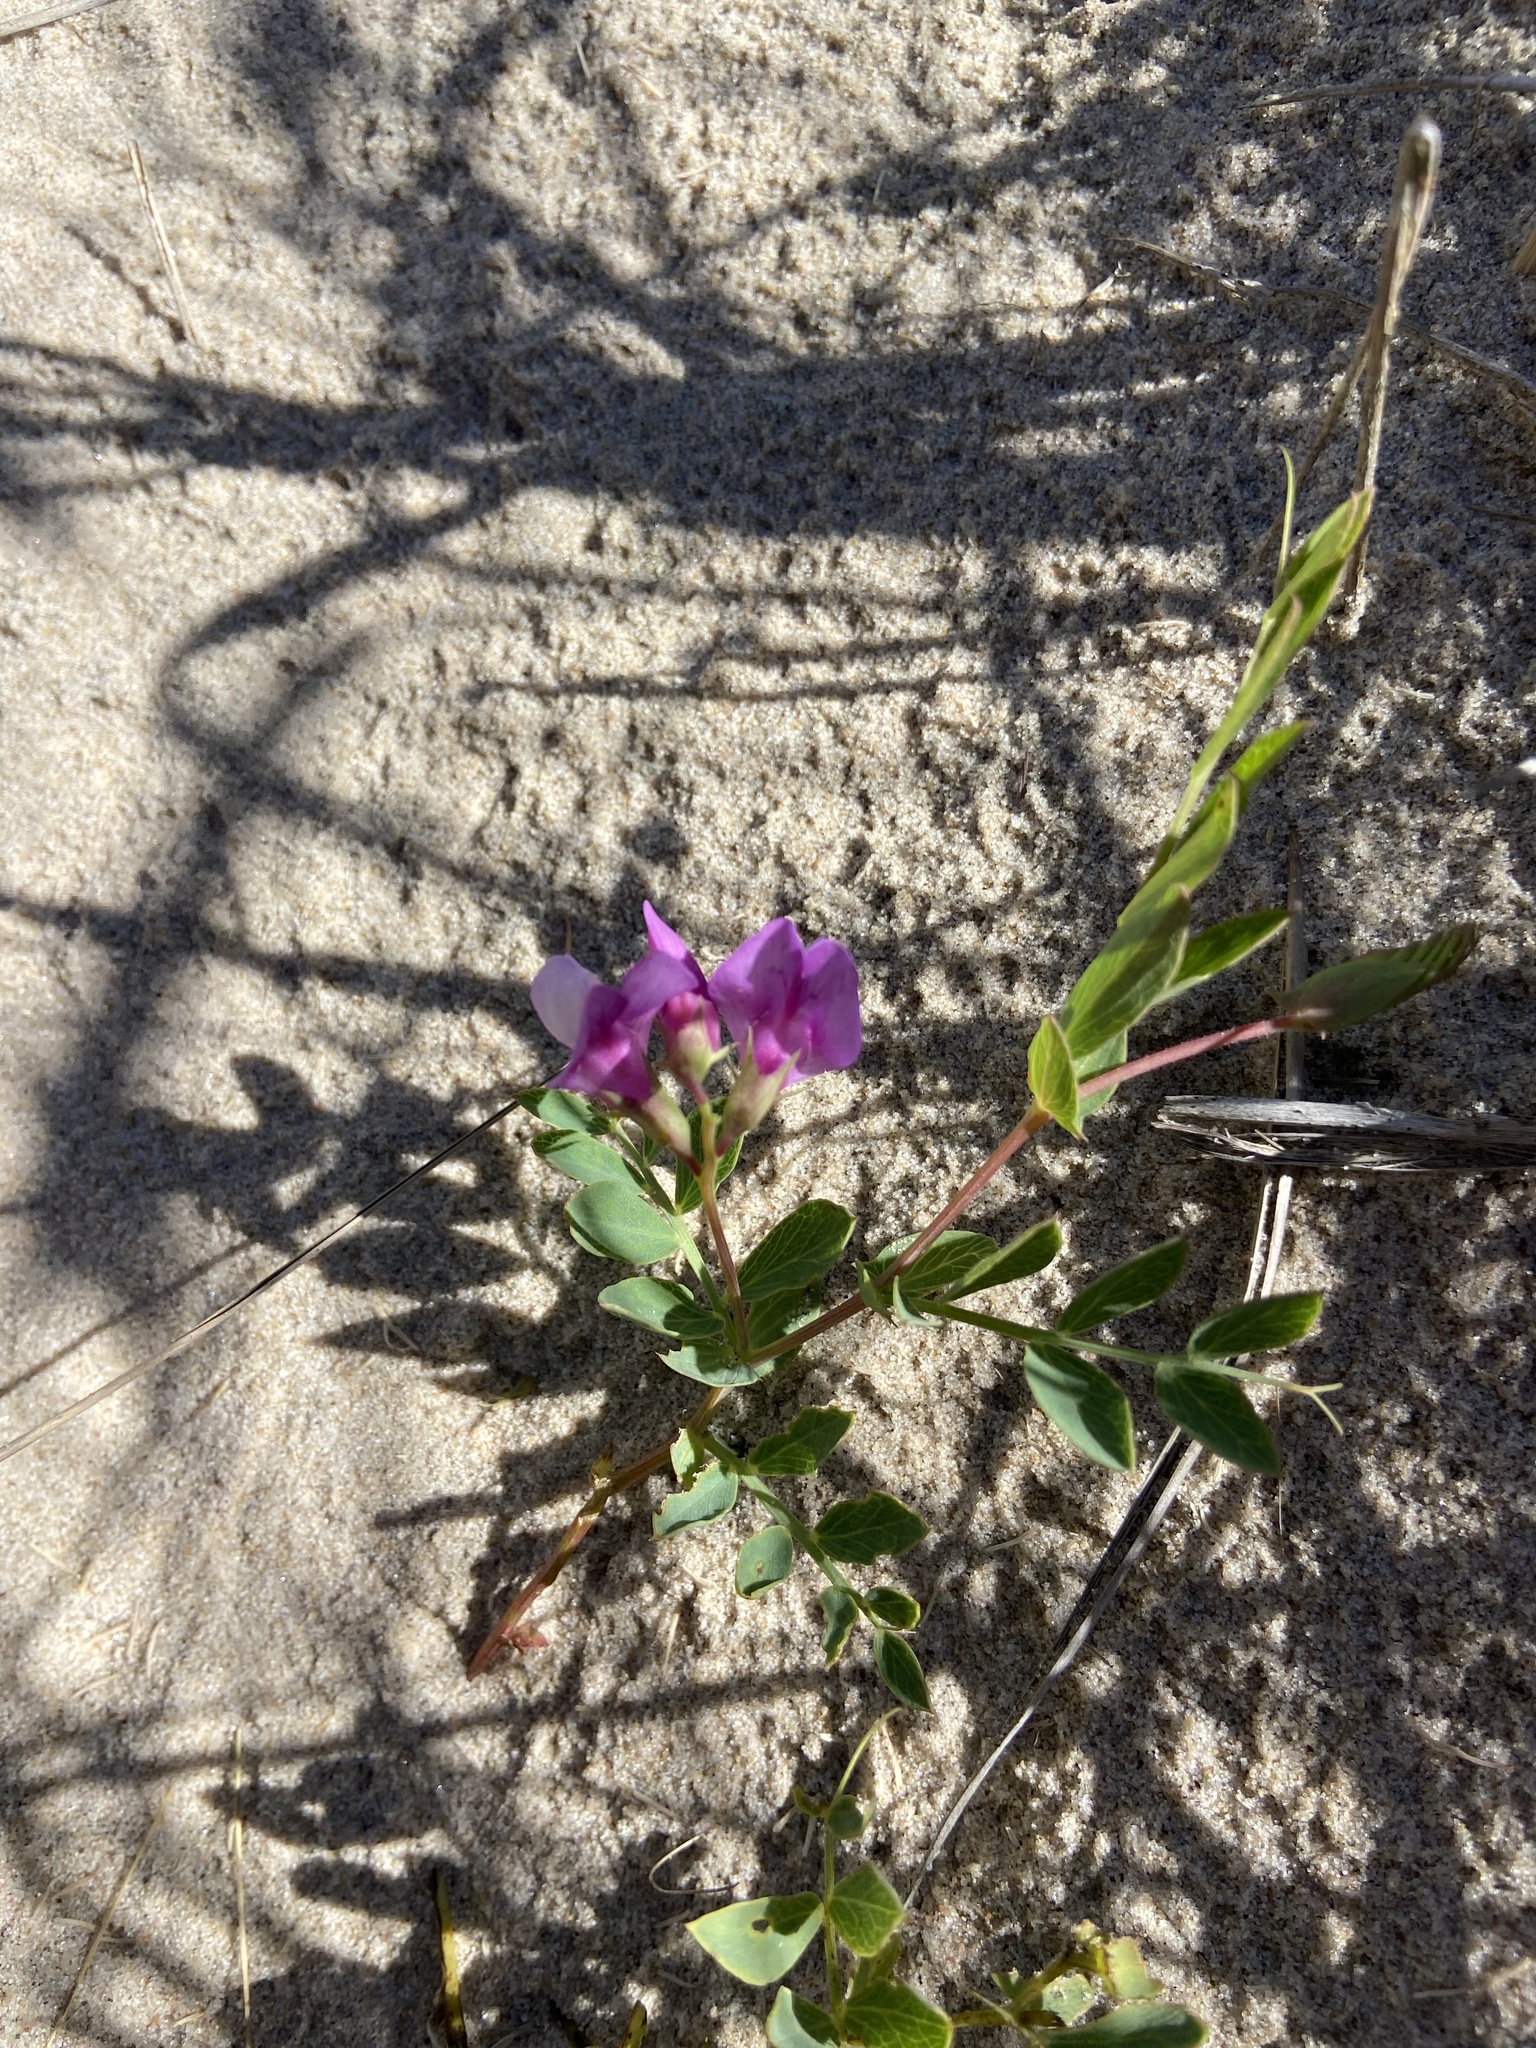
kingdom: Plantae
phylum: Tracheophyta
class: Magnoliopsida
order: Fabales
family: Fabaceae
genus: Lathyrus
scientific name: Lathyrus japonicus
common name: Sea pea
